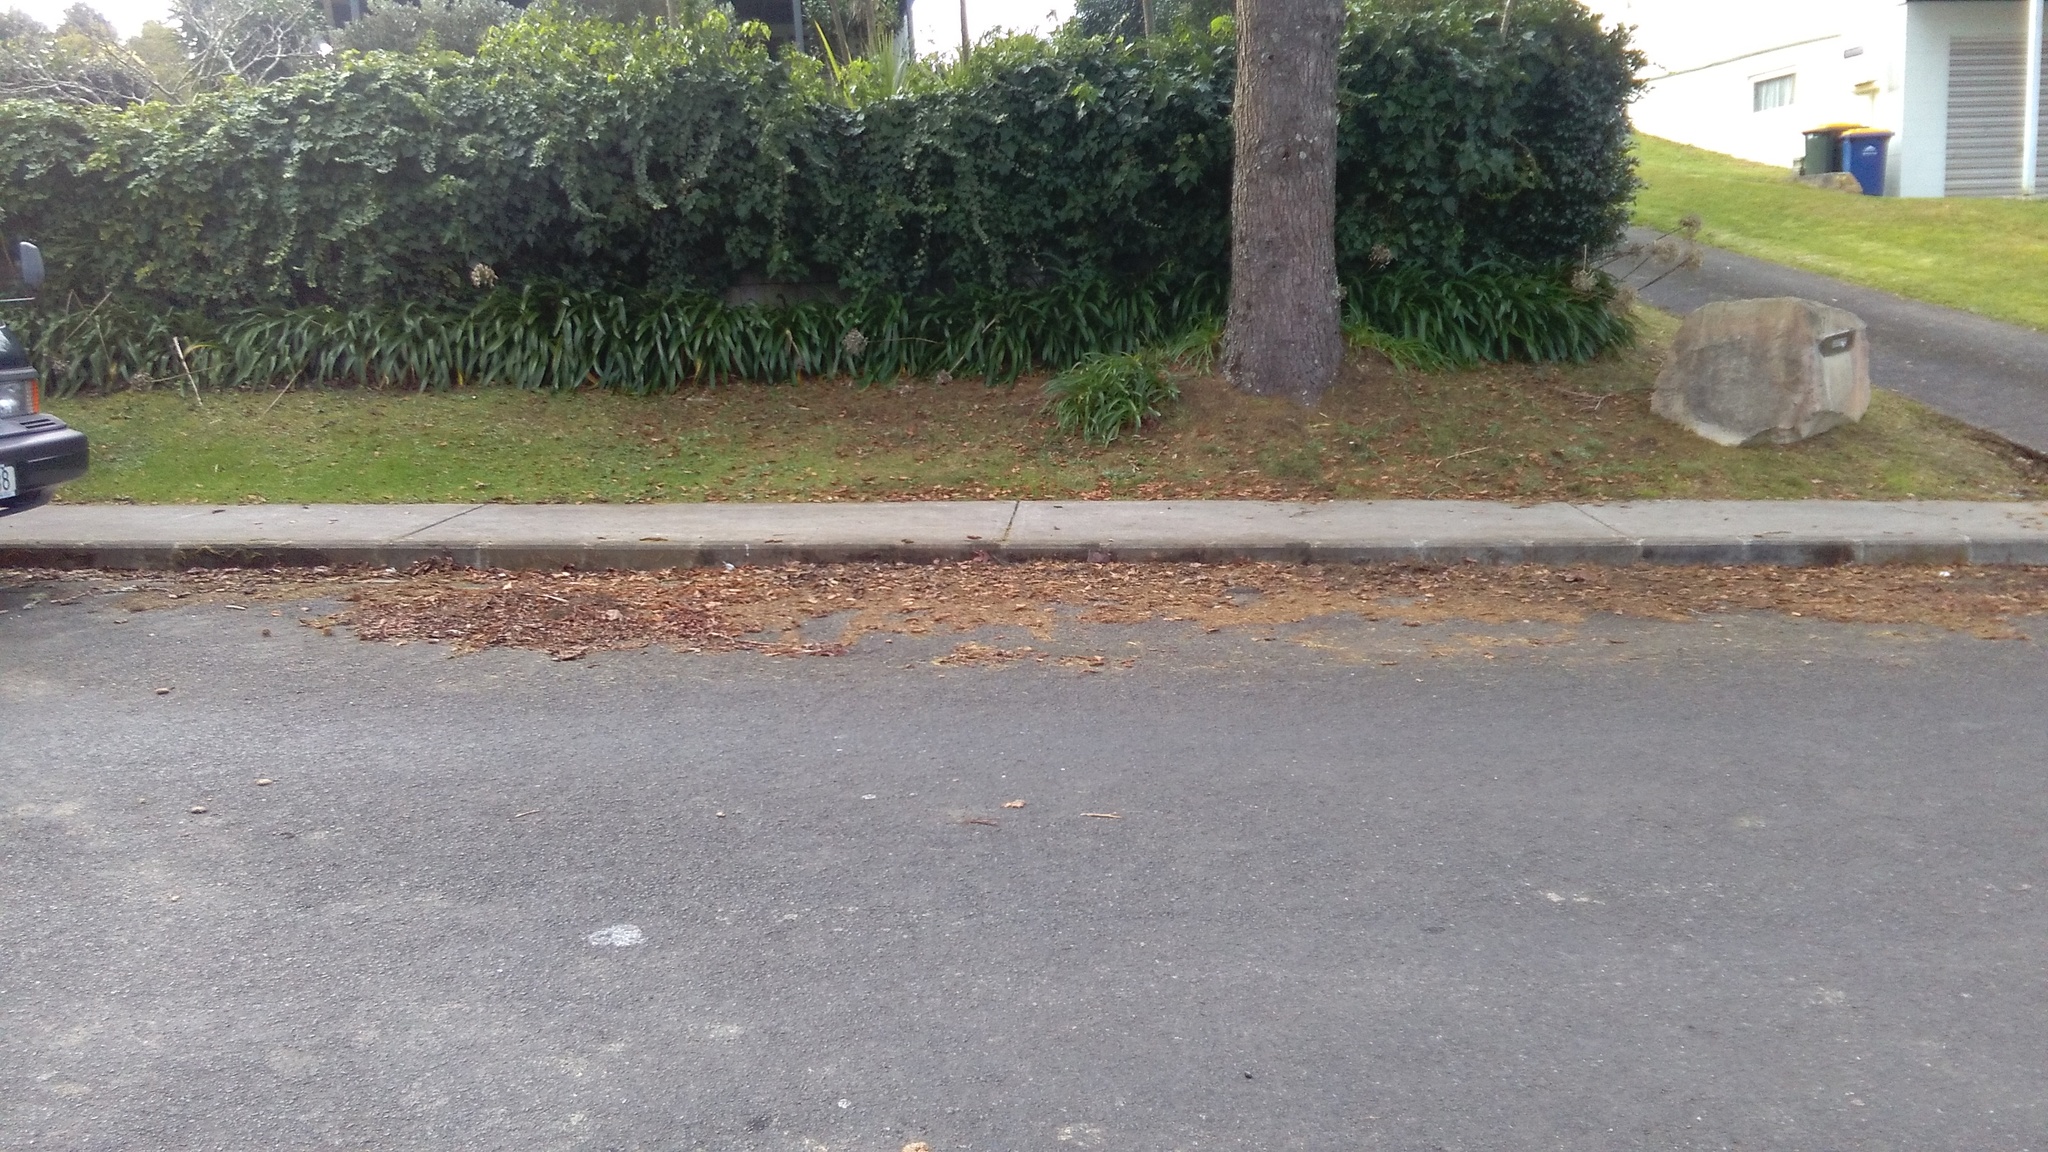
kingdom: Plantae
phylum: Tracheophyta
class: Magnoliopsida
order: Apiales
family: Araliaceae
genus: Hedera
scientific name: Hedera helix
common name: Ivy
